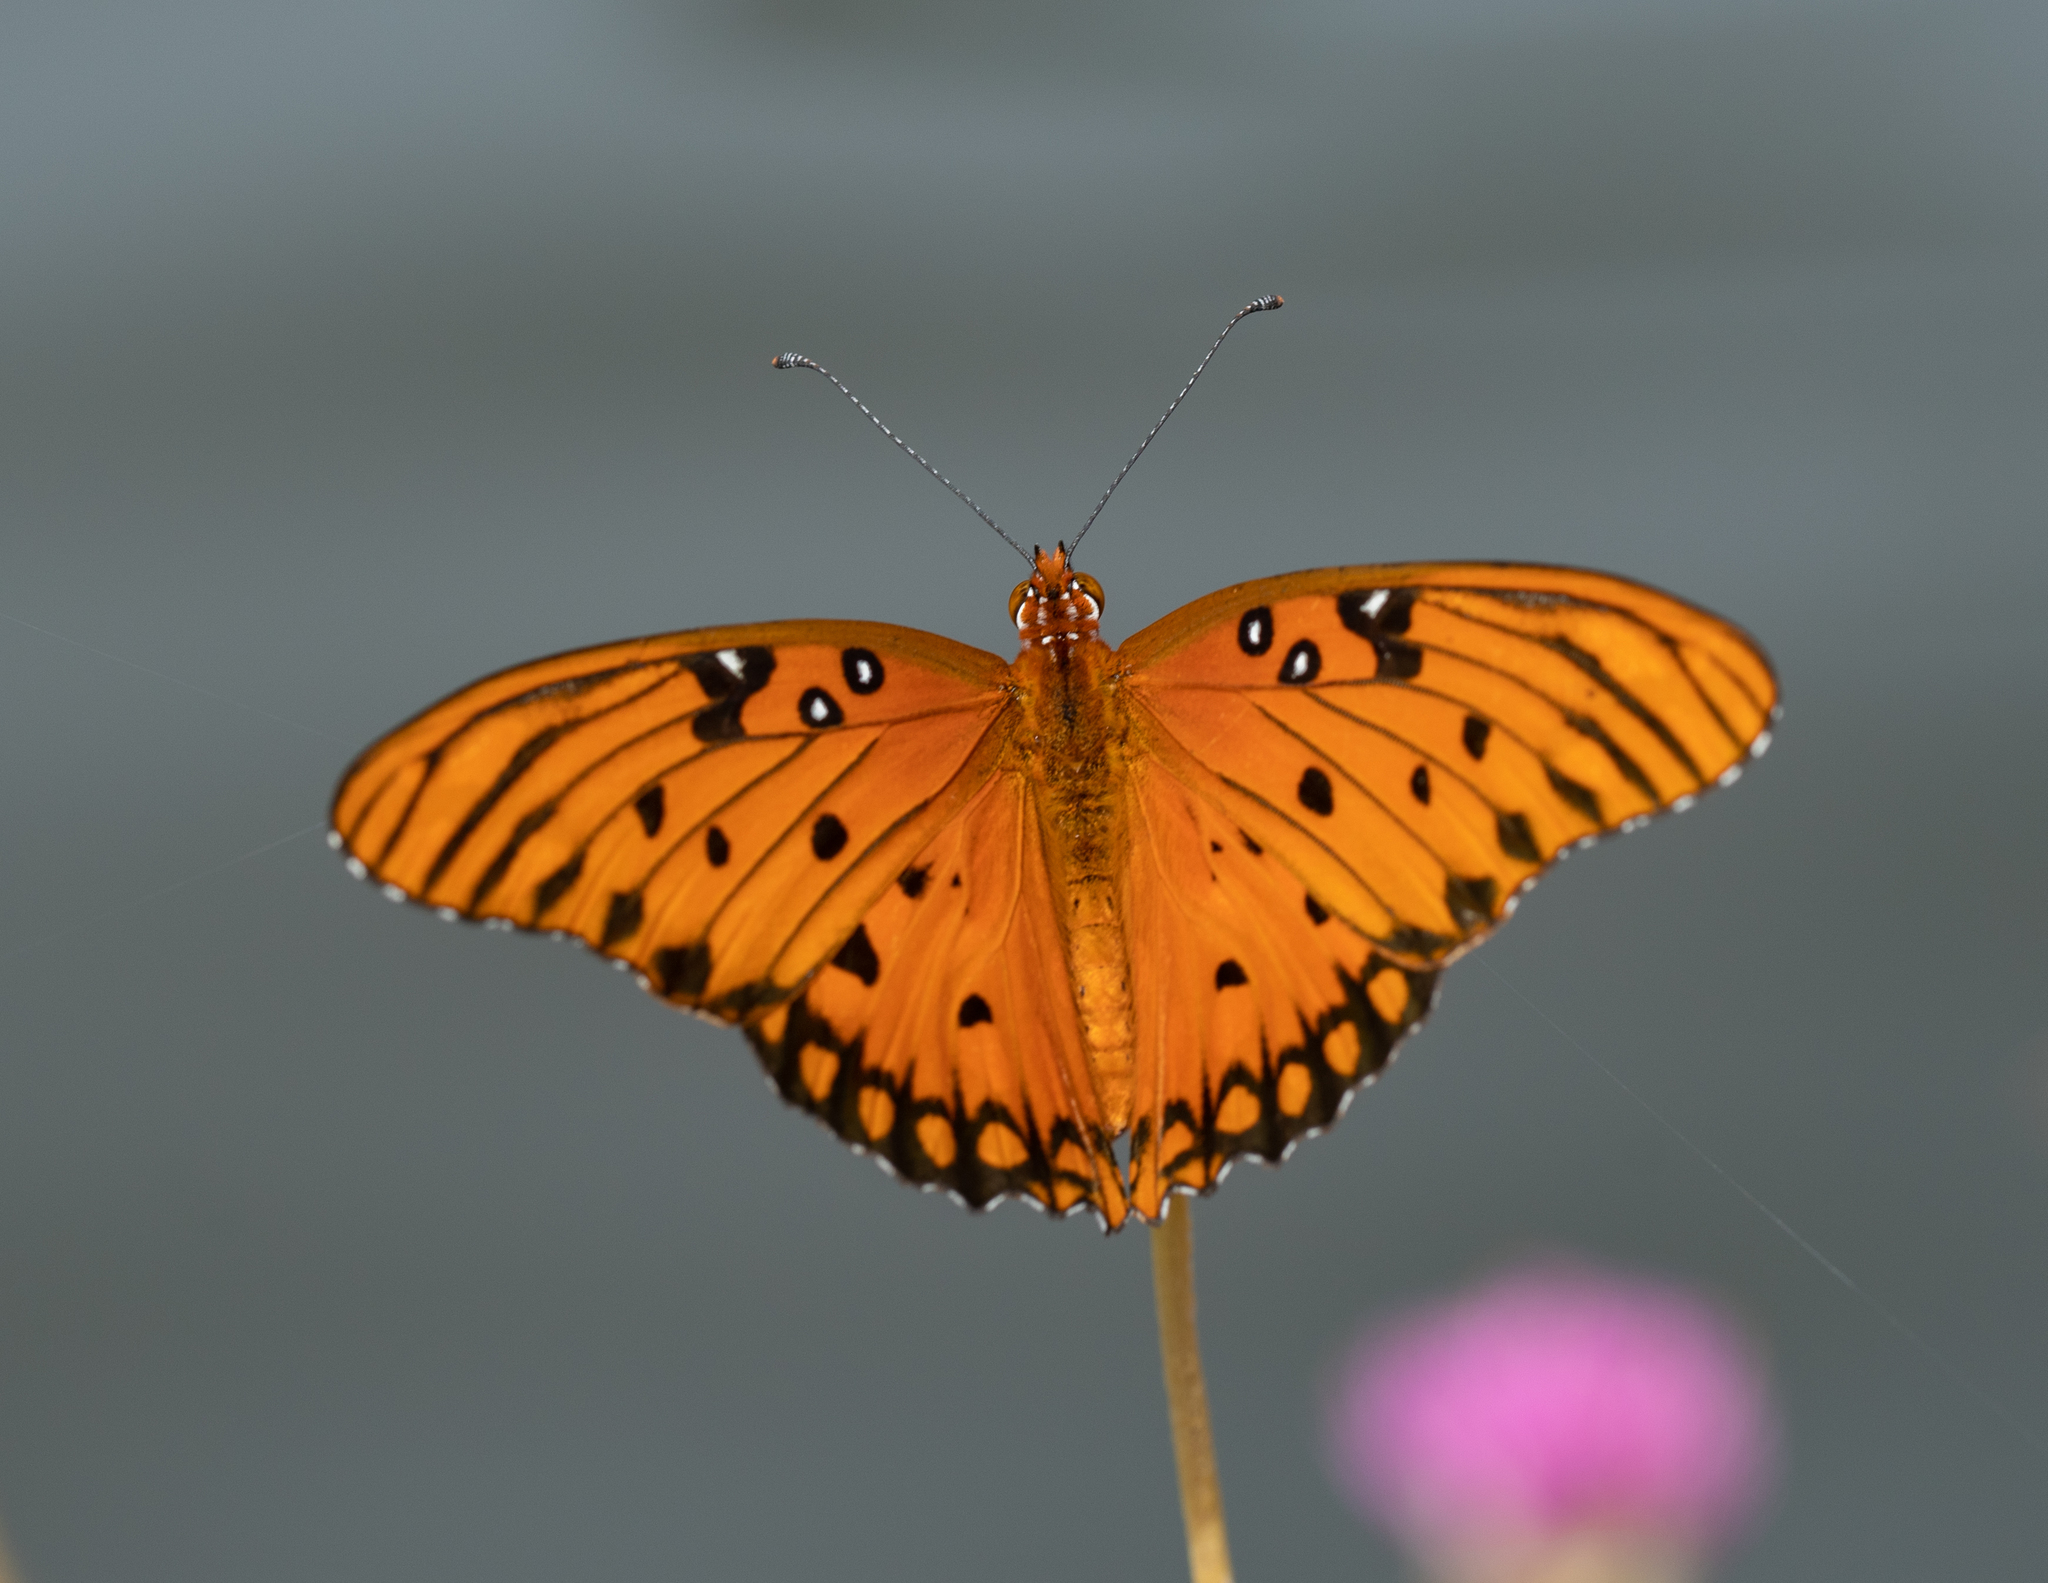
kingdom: Animalia
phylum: Arthropoda
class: Insecta
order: Lepidoptera
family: Nymphalidae
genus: Dione
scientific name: Dione vanillae
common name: Gulf fritillary
